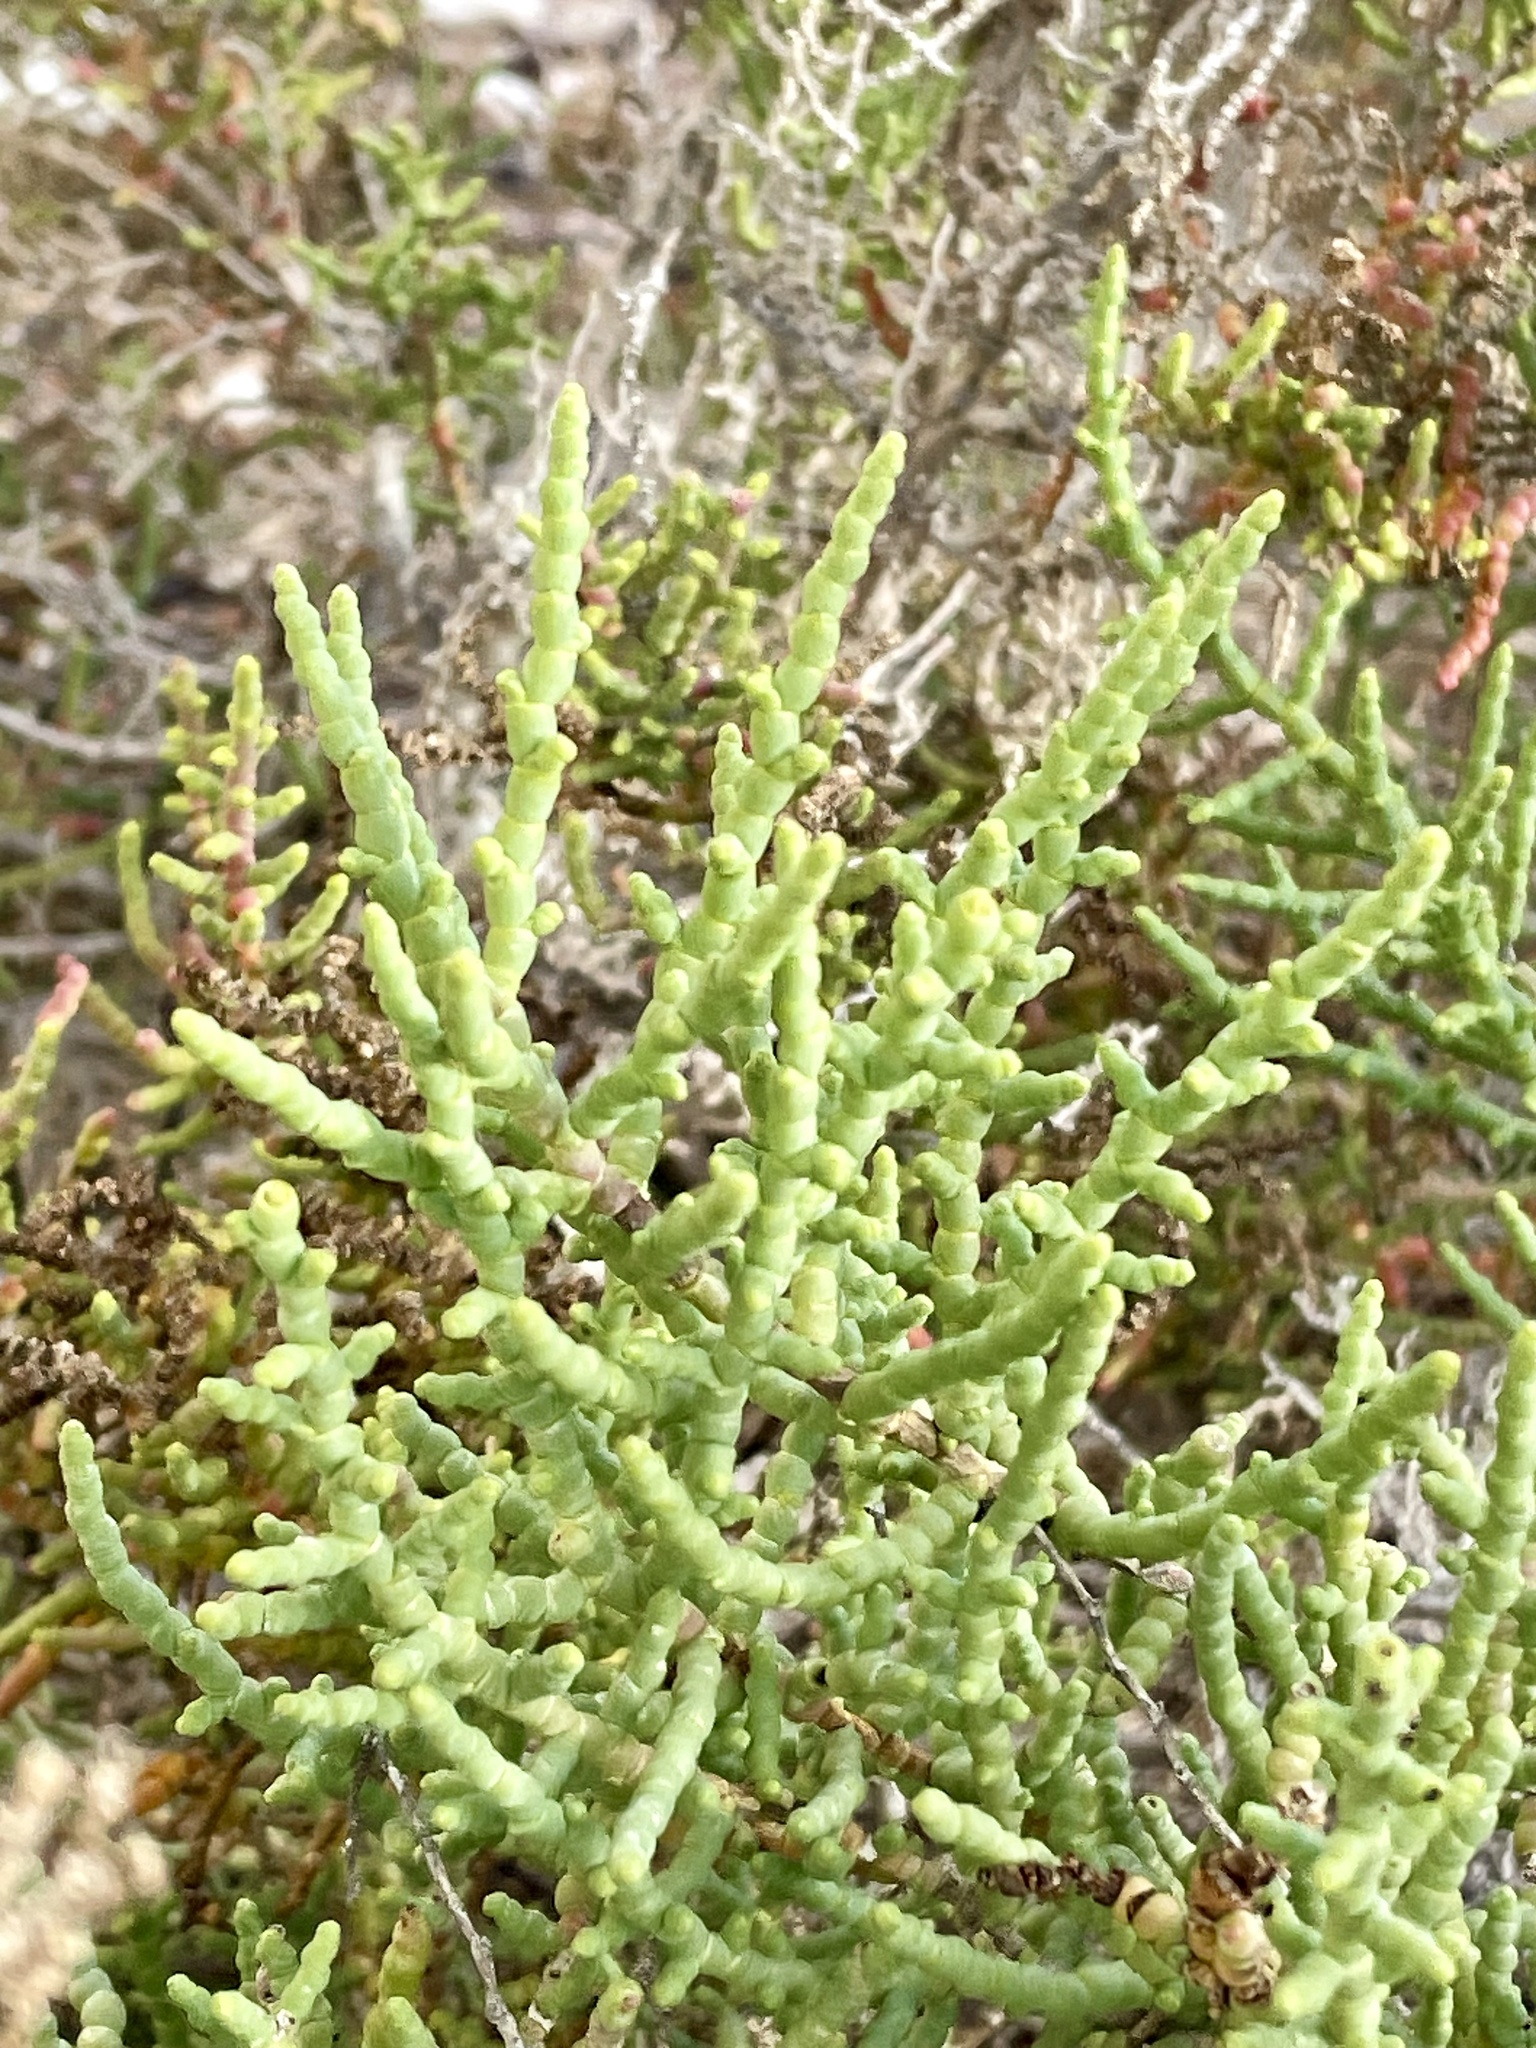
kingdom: Plantae
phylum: Tracheophyta
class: Magnoliopsida
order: Caryophyllales
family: Amaranthaceae
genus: Allenrolfea
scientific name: Allenrolfea occidentalis
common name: Iodine-bush
